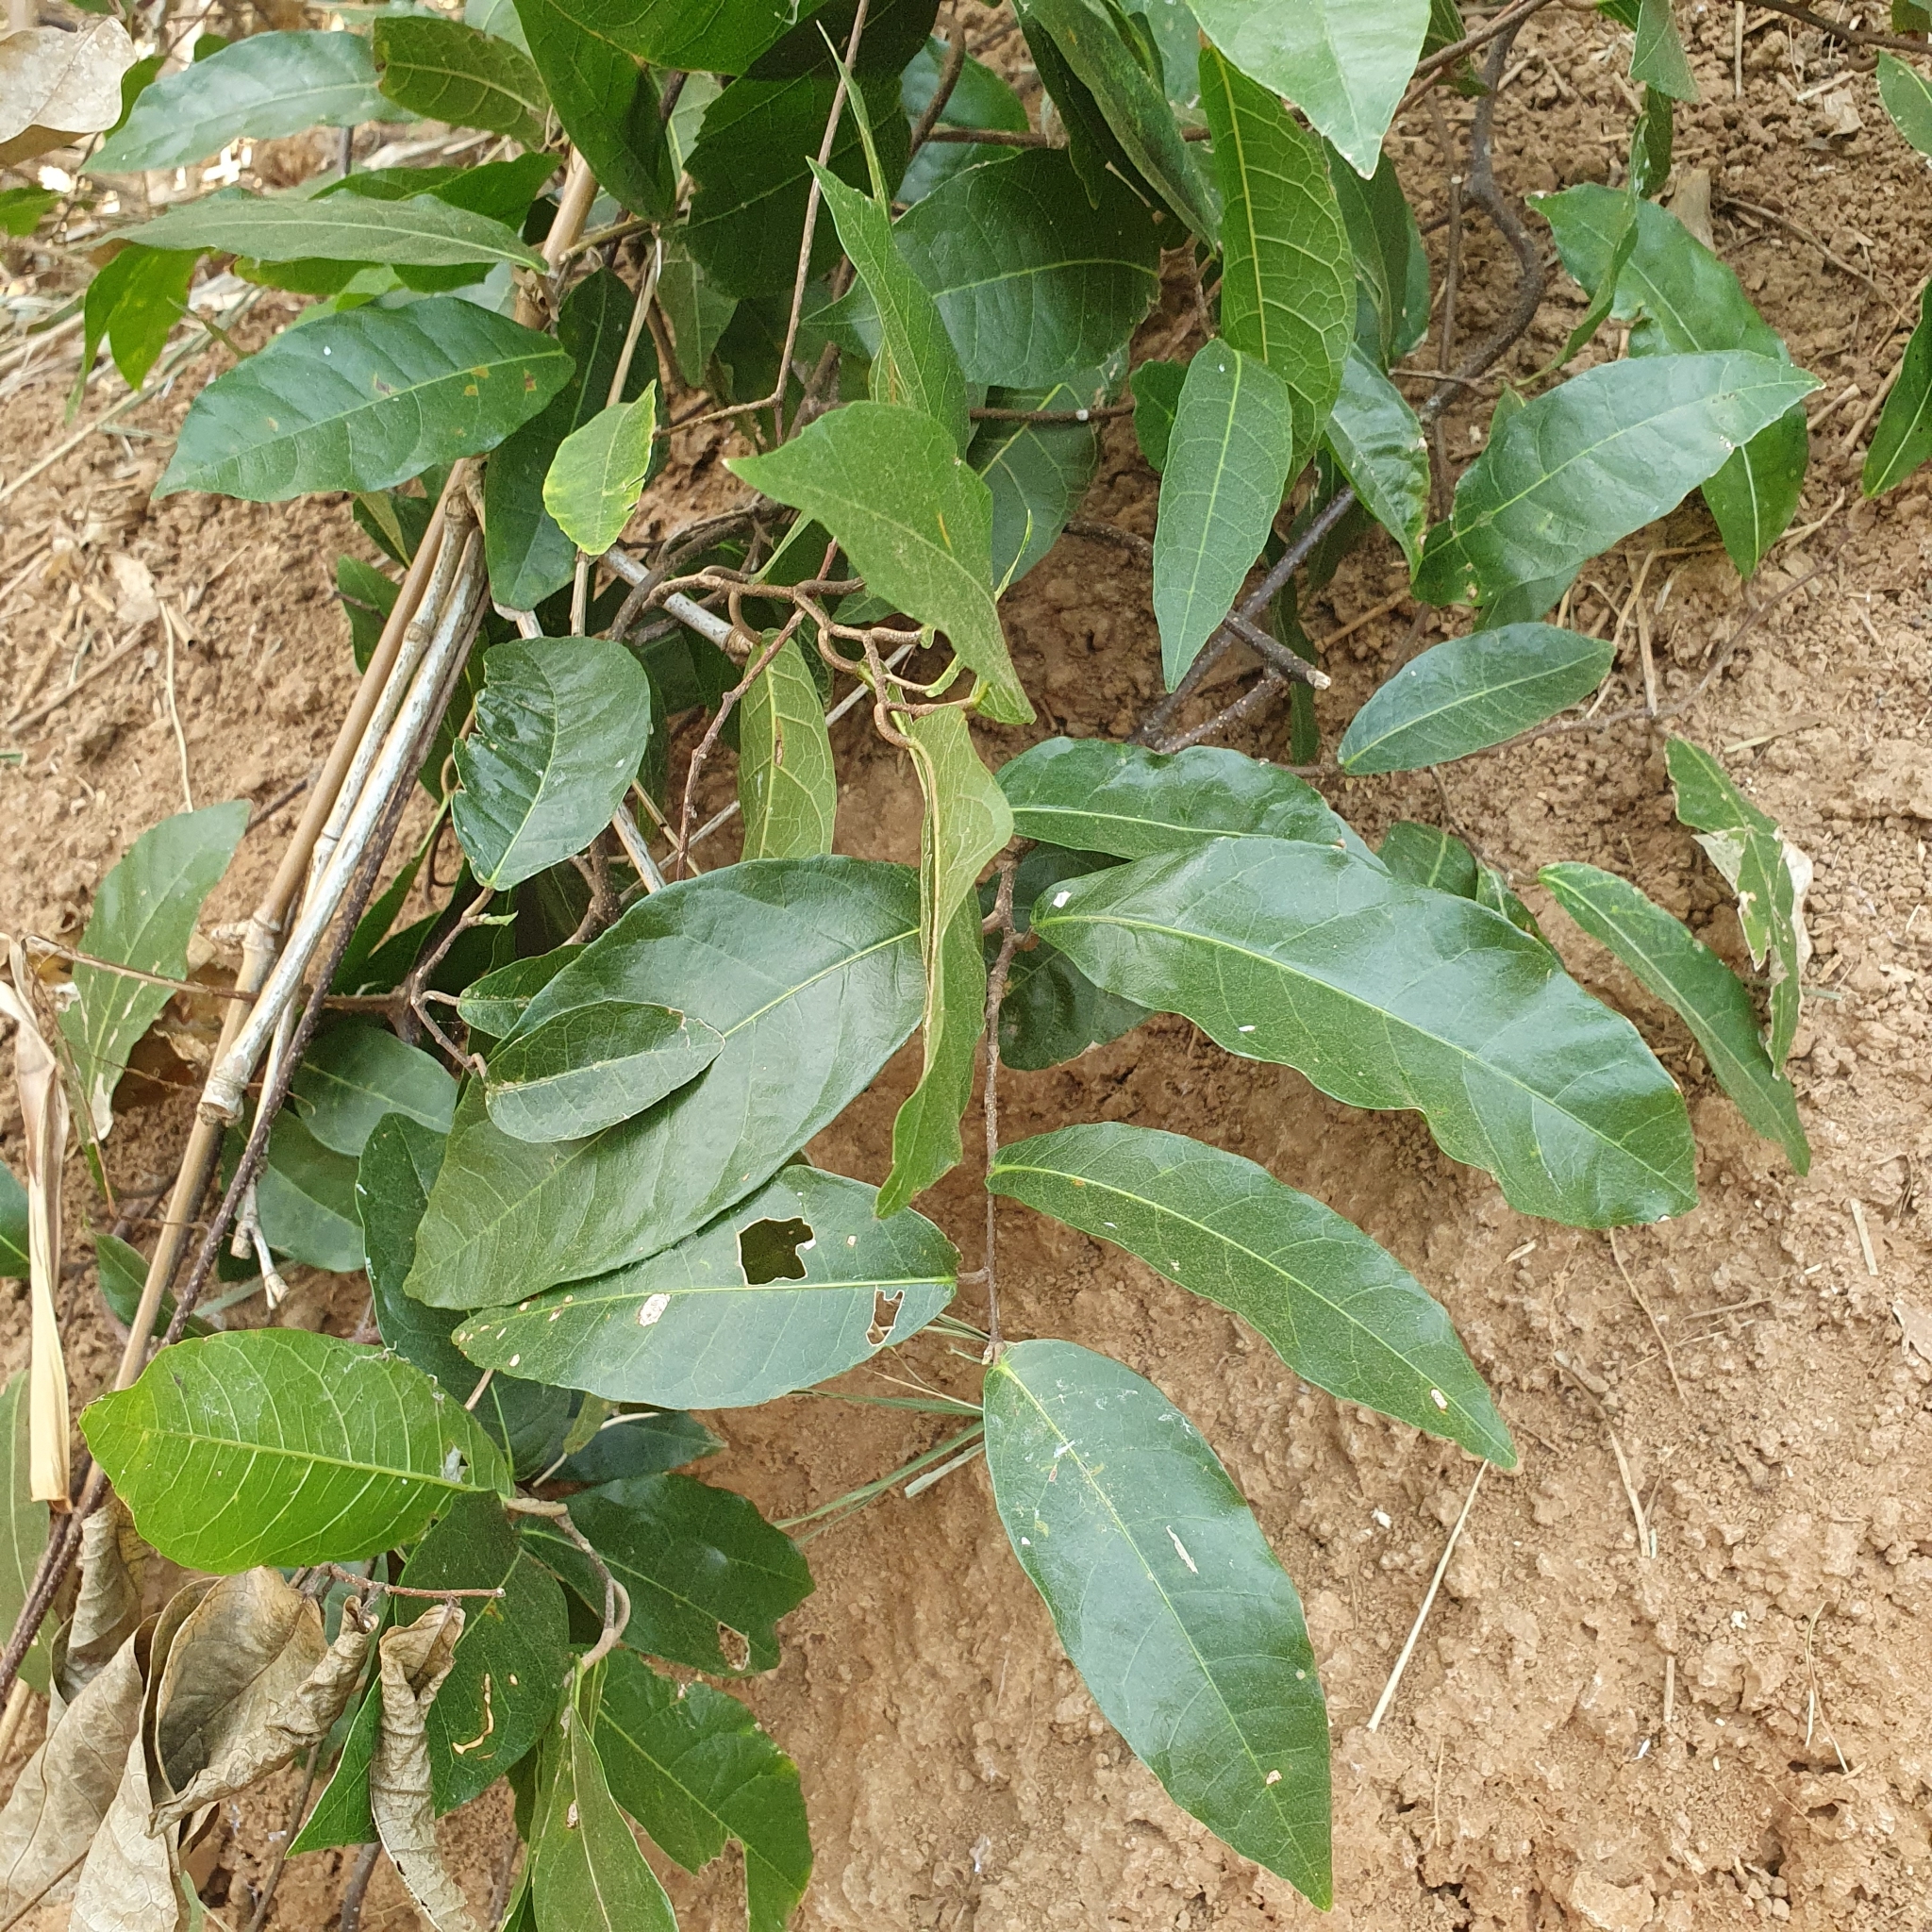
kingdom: Plantae
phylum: Tracheophyta
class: Magnoliopsida
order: Rosales
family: Moraceae
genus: Malaisia
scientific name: Malaisia scandens
